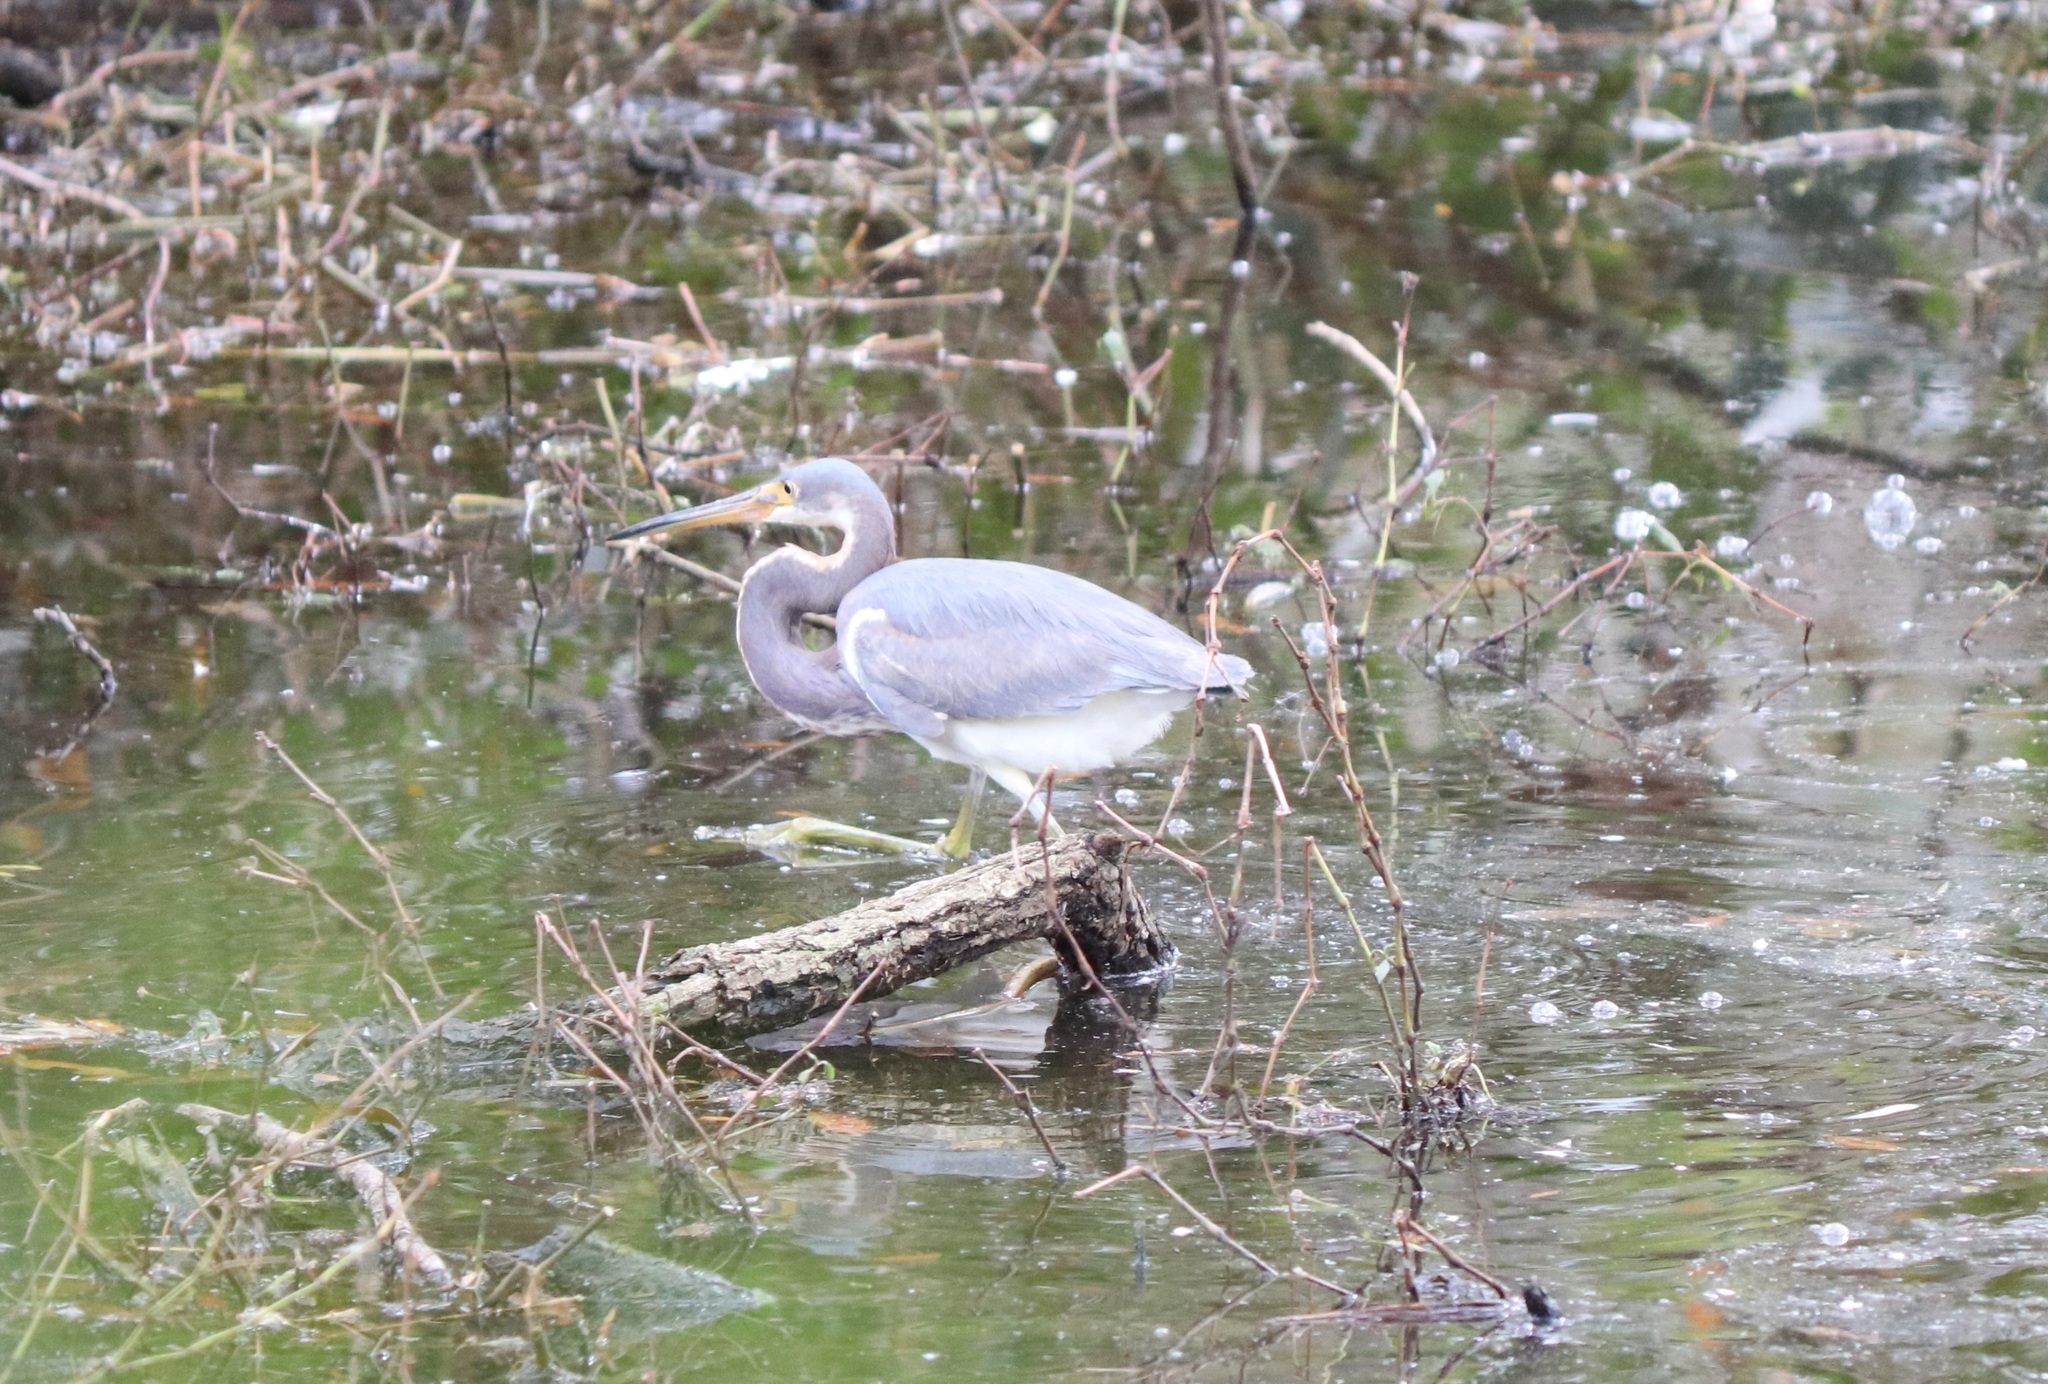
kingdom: Animalia
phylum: Chordata
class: Aves
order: Pelecaniformes
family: Ardeidae
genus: Egretta
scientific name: Egretta tricolor
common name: Tricolored heron
